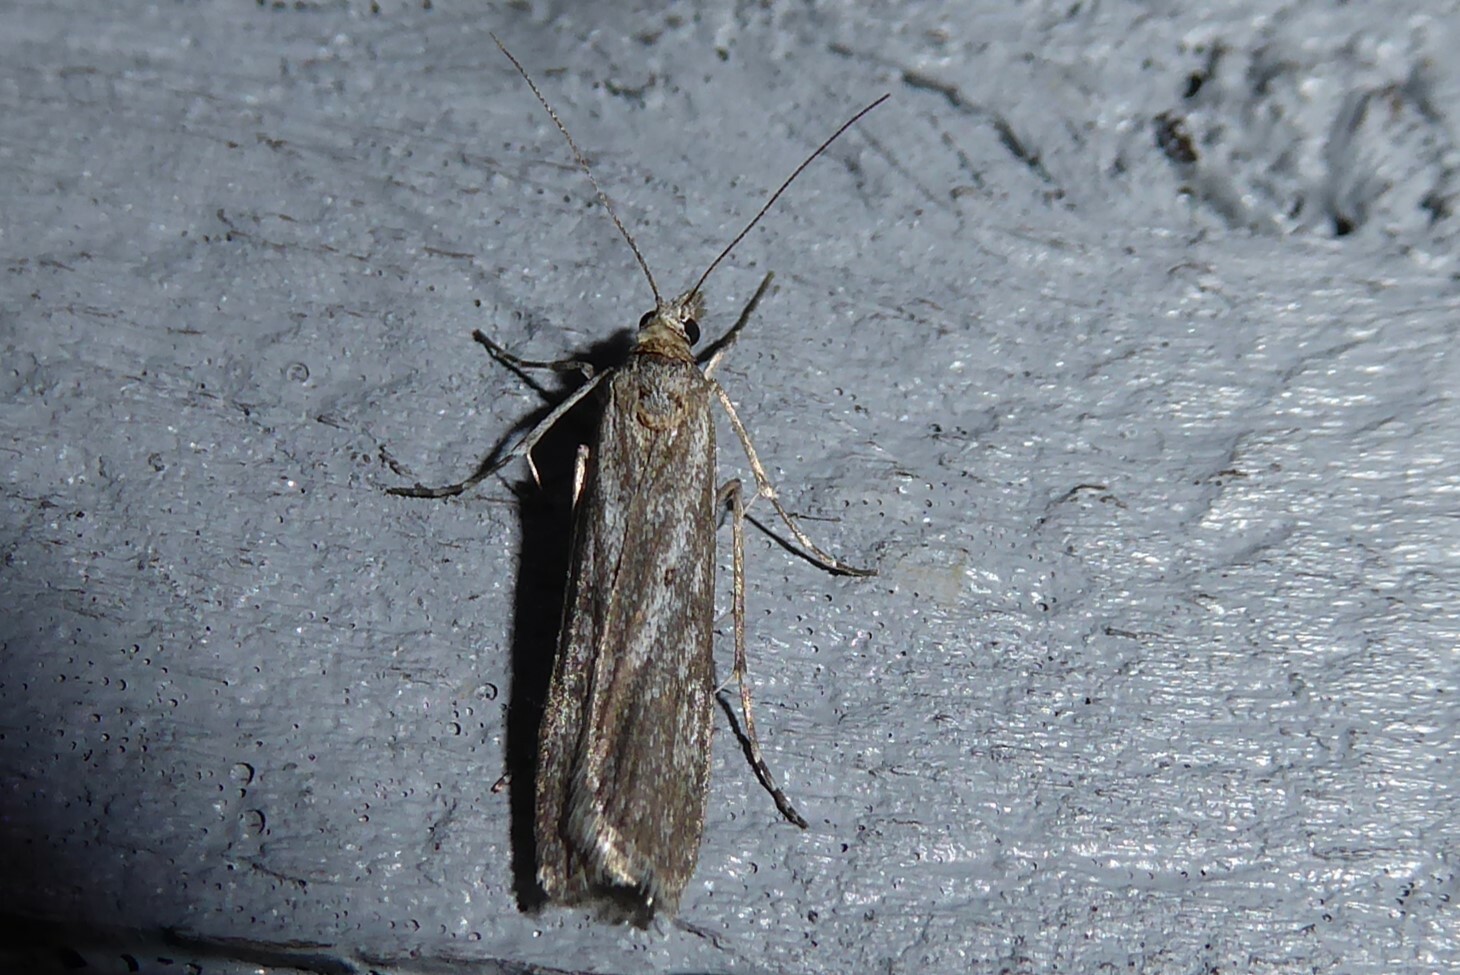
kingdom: Animalia
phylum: Arthropoda
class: Insecta
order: Lepidoptera
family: Crambidae
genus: Eudonia
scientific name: Eudonia leptalea
